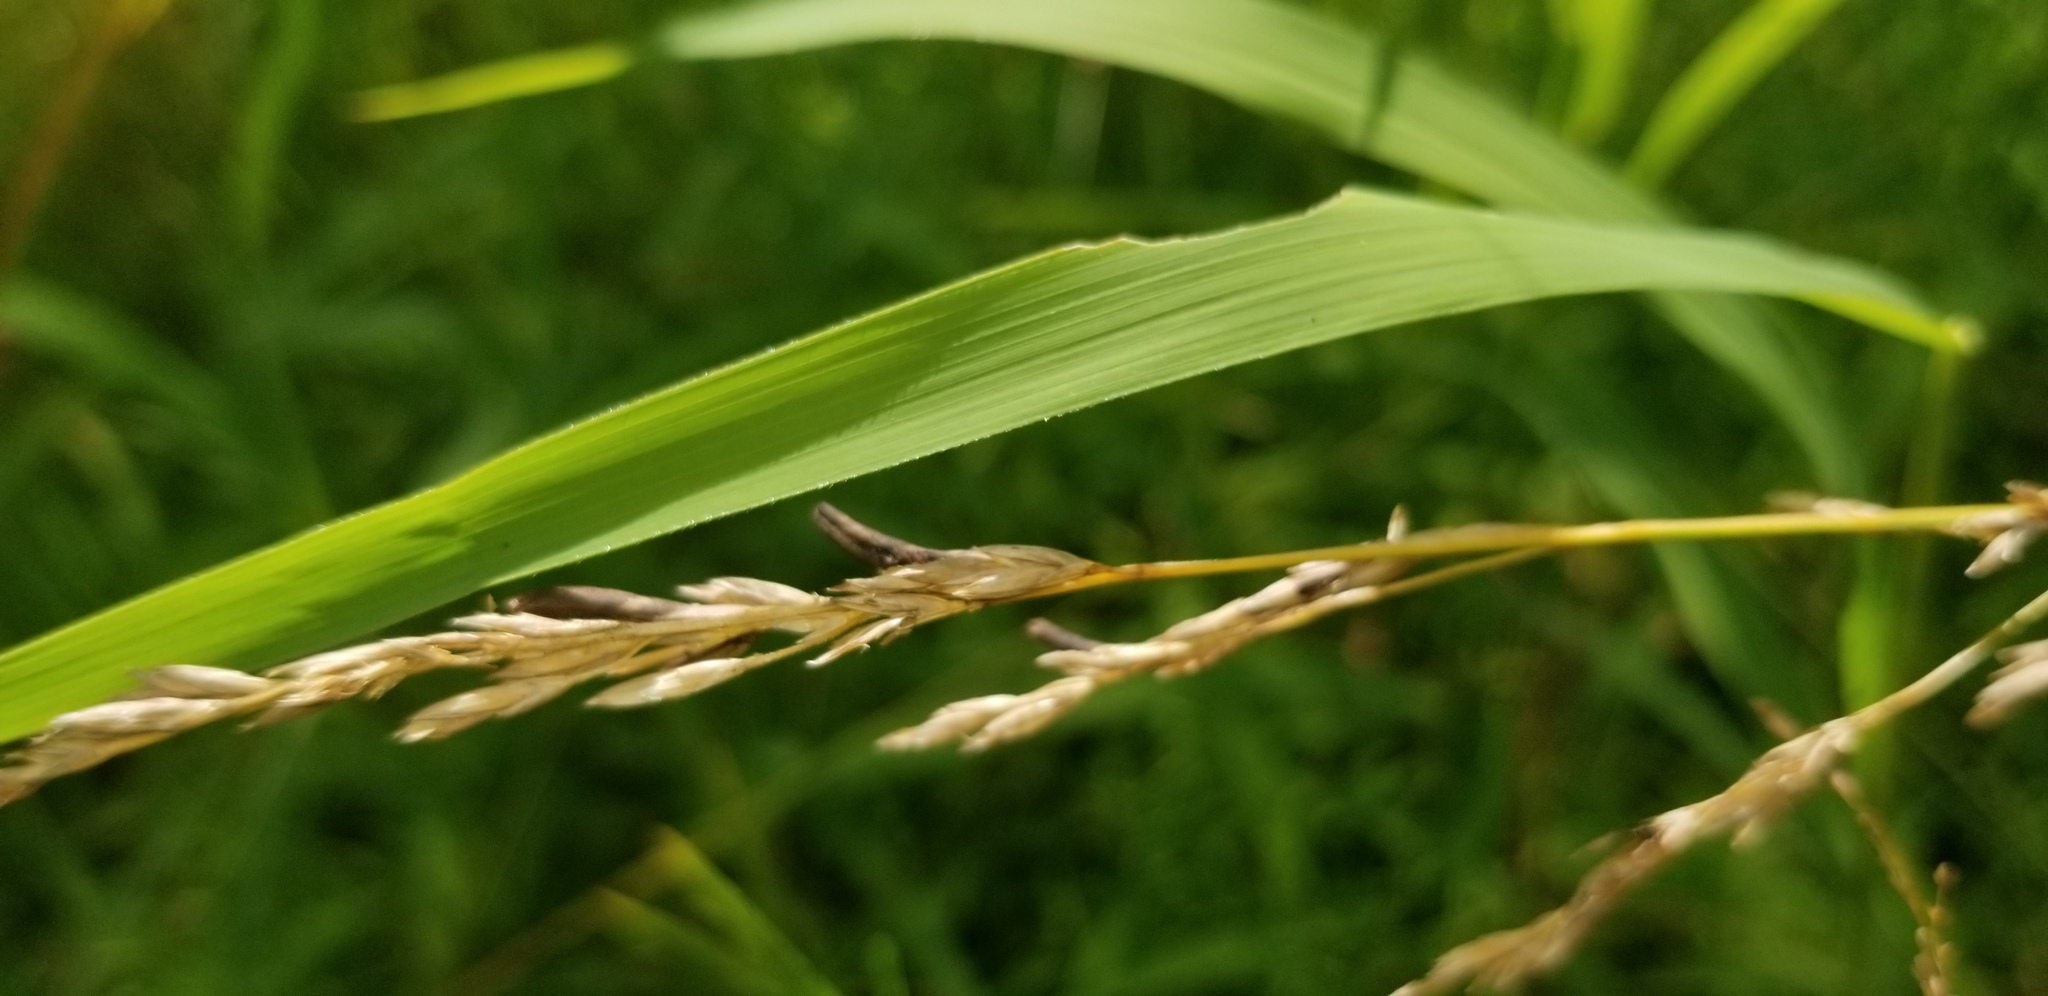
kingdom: Fungi
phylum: Ascomycota
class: Sordariomycetes
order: Hypocreales
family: Clavicipitaceae
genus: Claviceps
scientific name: Claviceps purpurea
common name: Rye ergot
